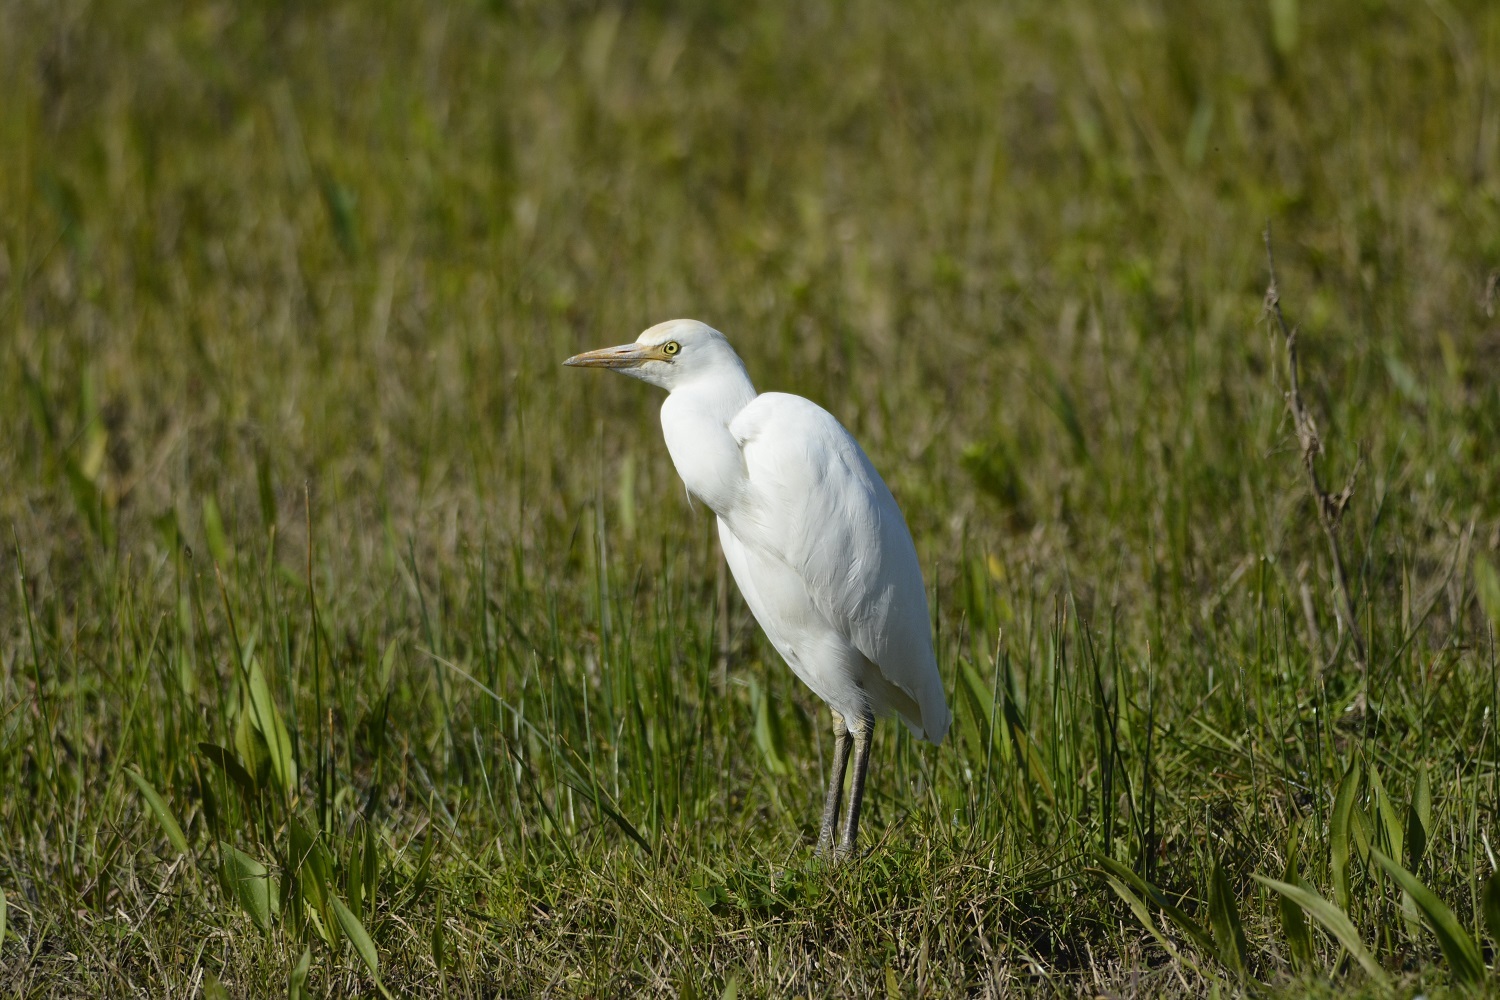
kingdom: Animalia
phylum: Chordata
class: Aves
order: Pelecaniformes
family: Ardeidae
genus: Bubulcus
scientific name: Bubulcus ibis
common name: Cattle egret
